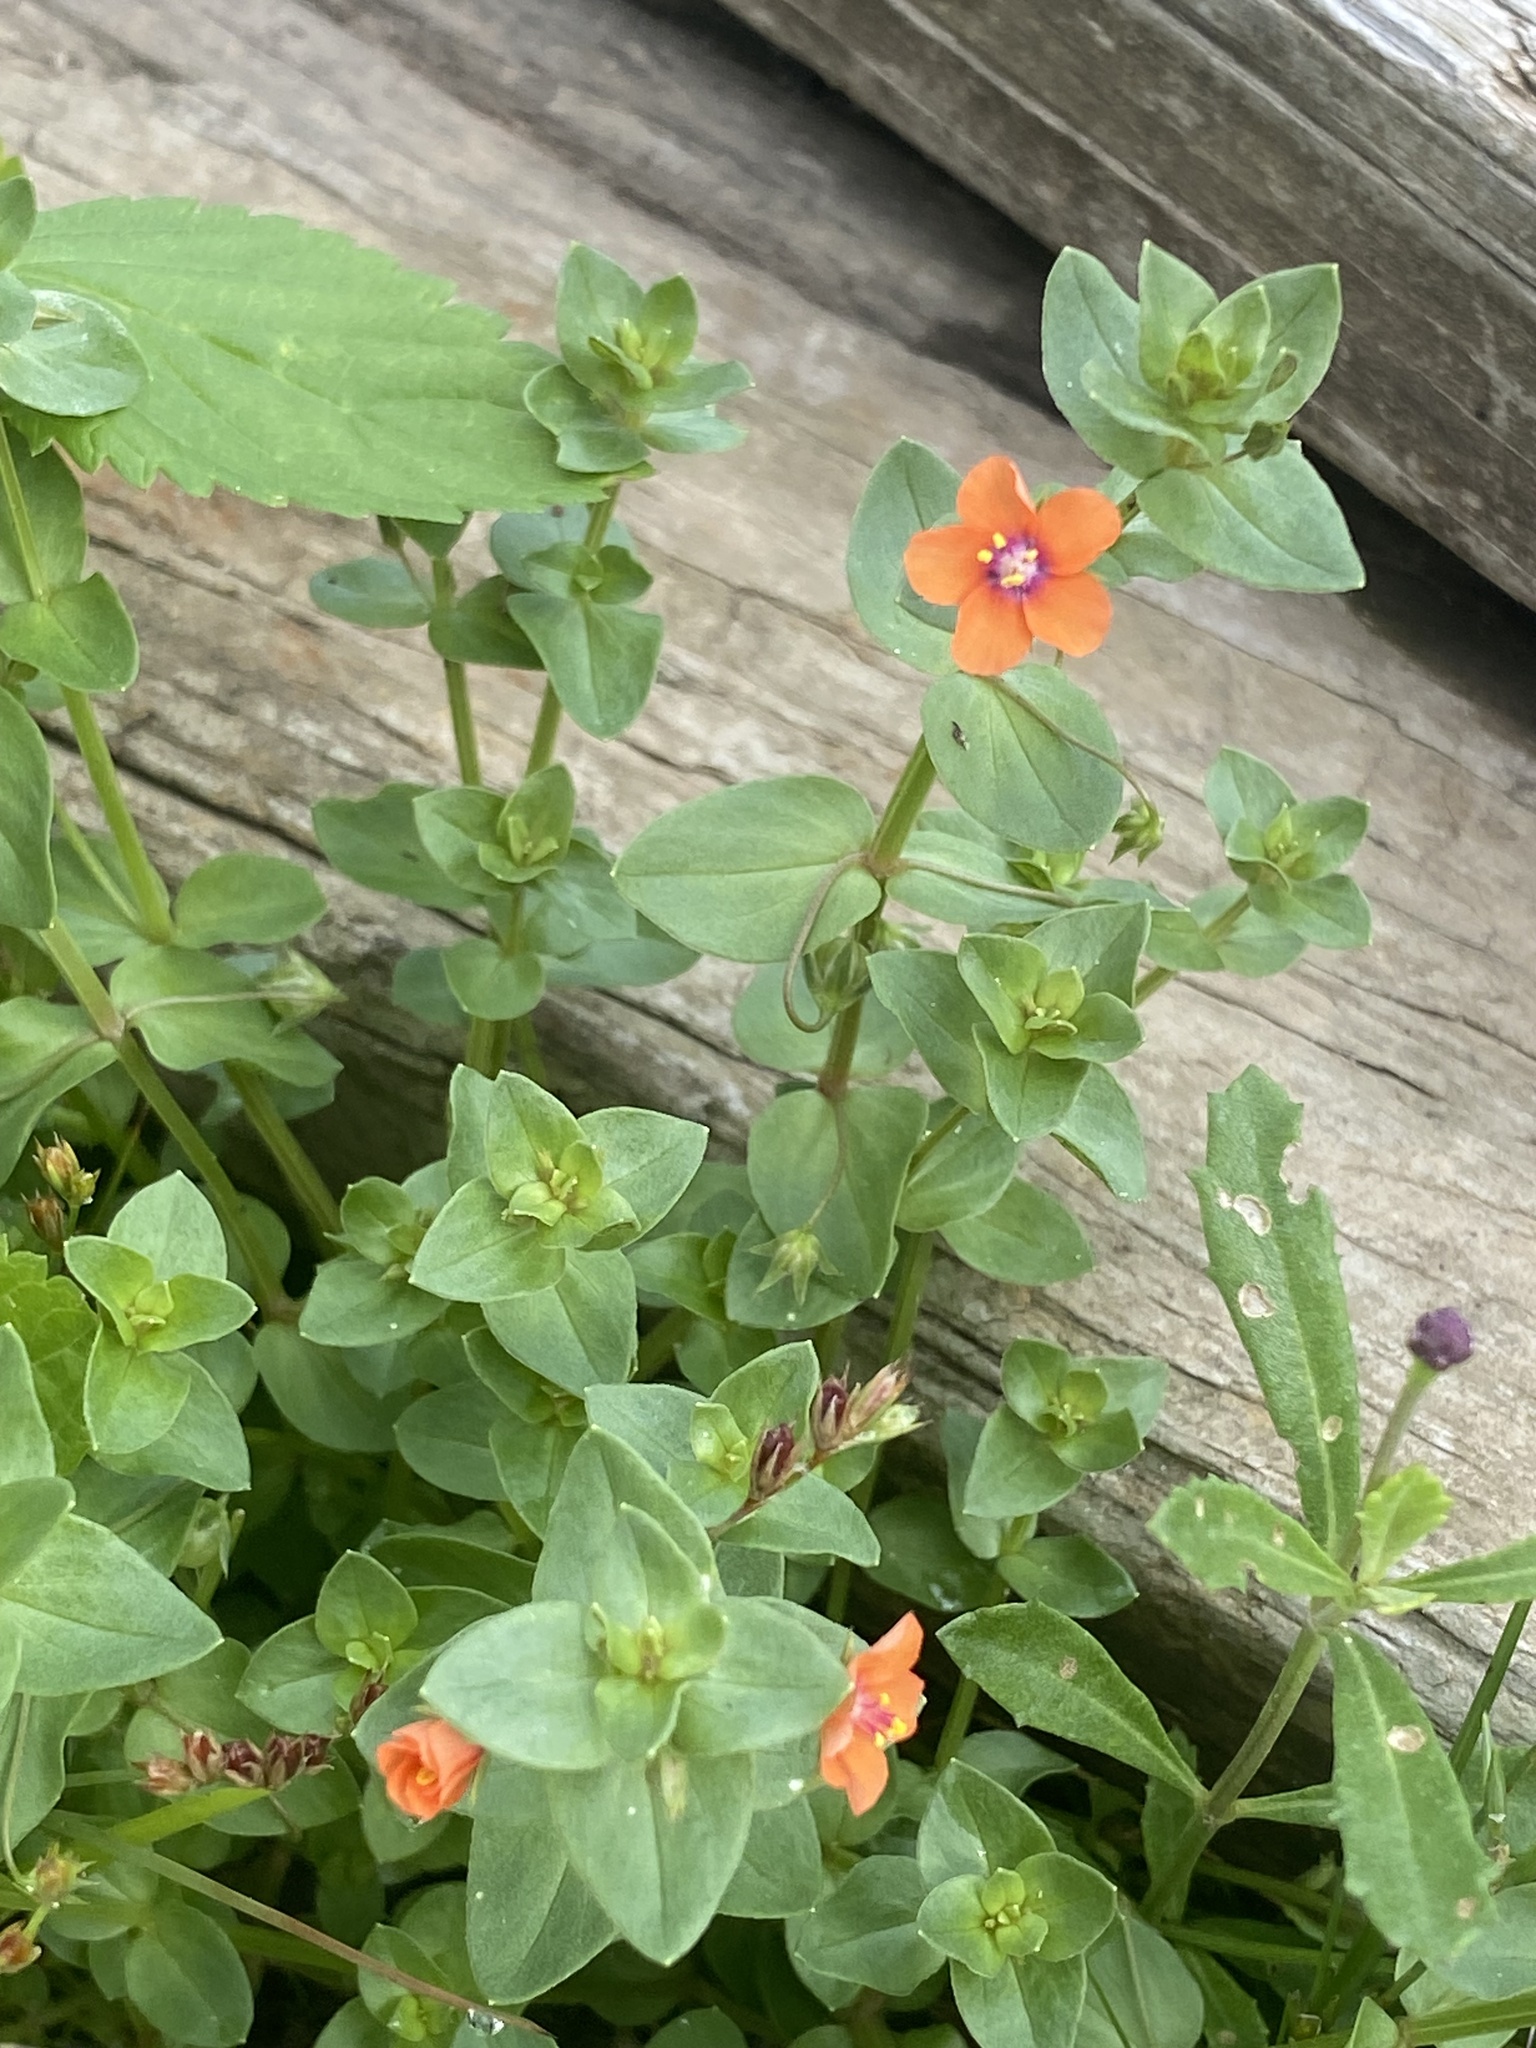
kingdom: Plantae
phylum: Tracheophyta
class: Magnoliopsida
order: Ericales
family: Primulaceae
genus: Lysimachia
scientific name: Lysimachia arvensis
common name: Scarlet pimpernel
